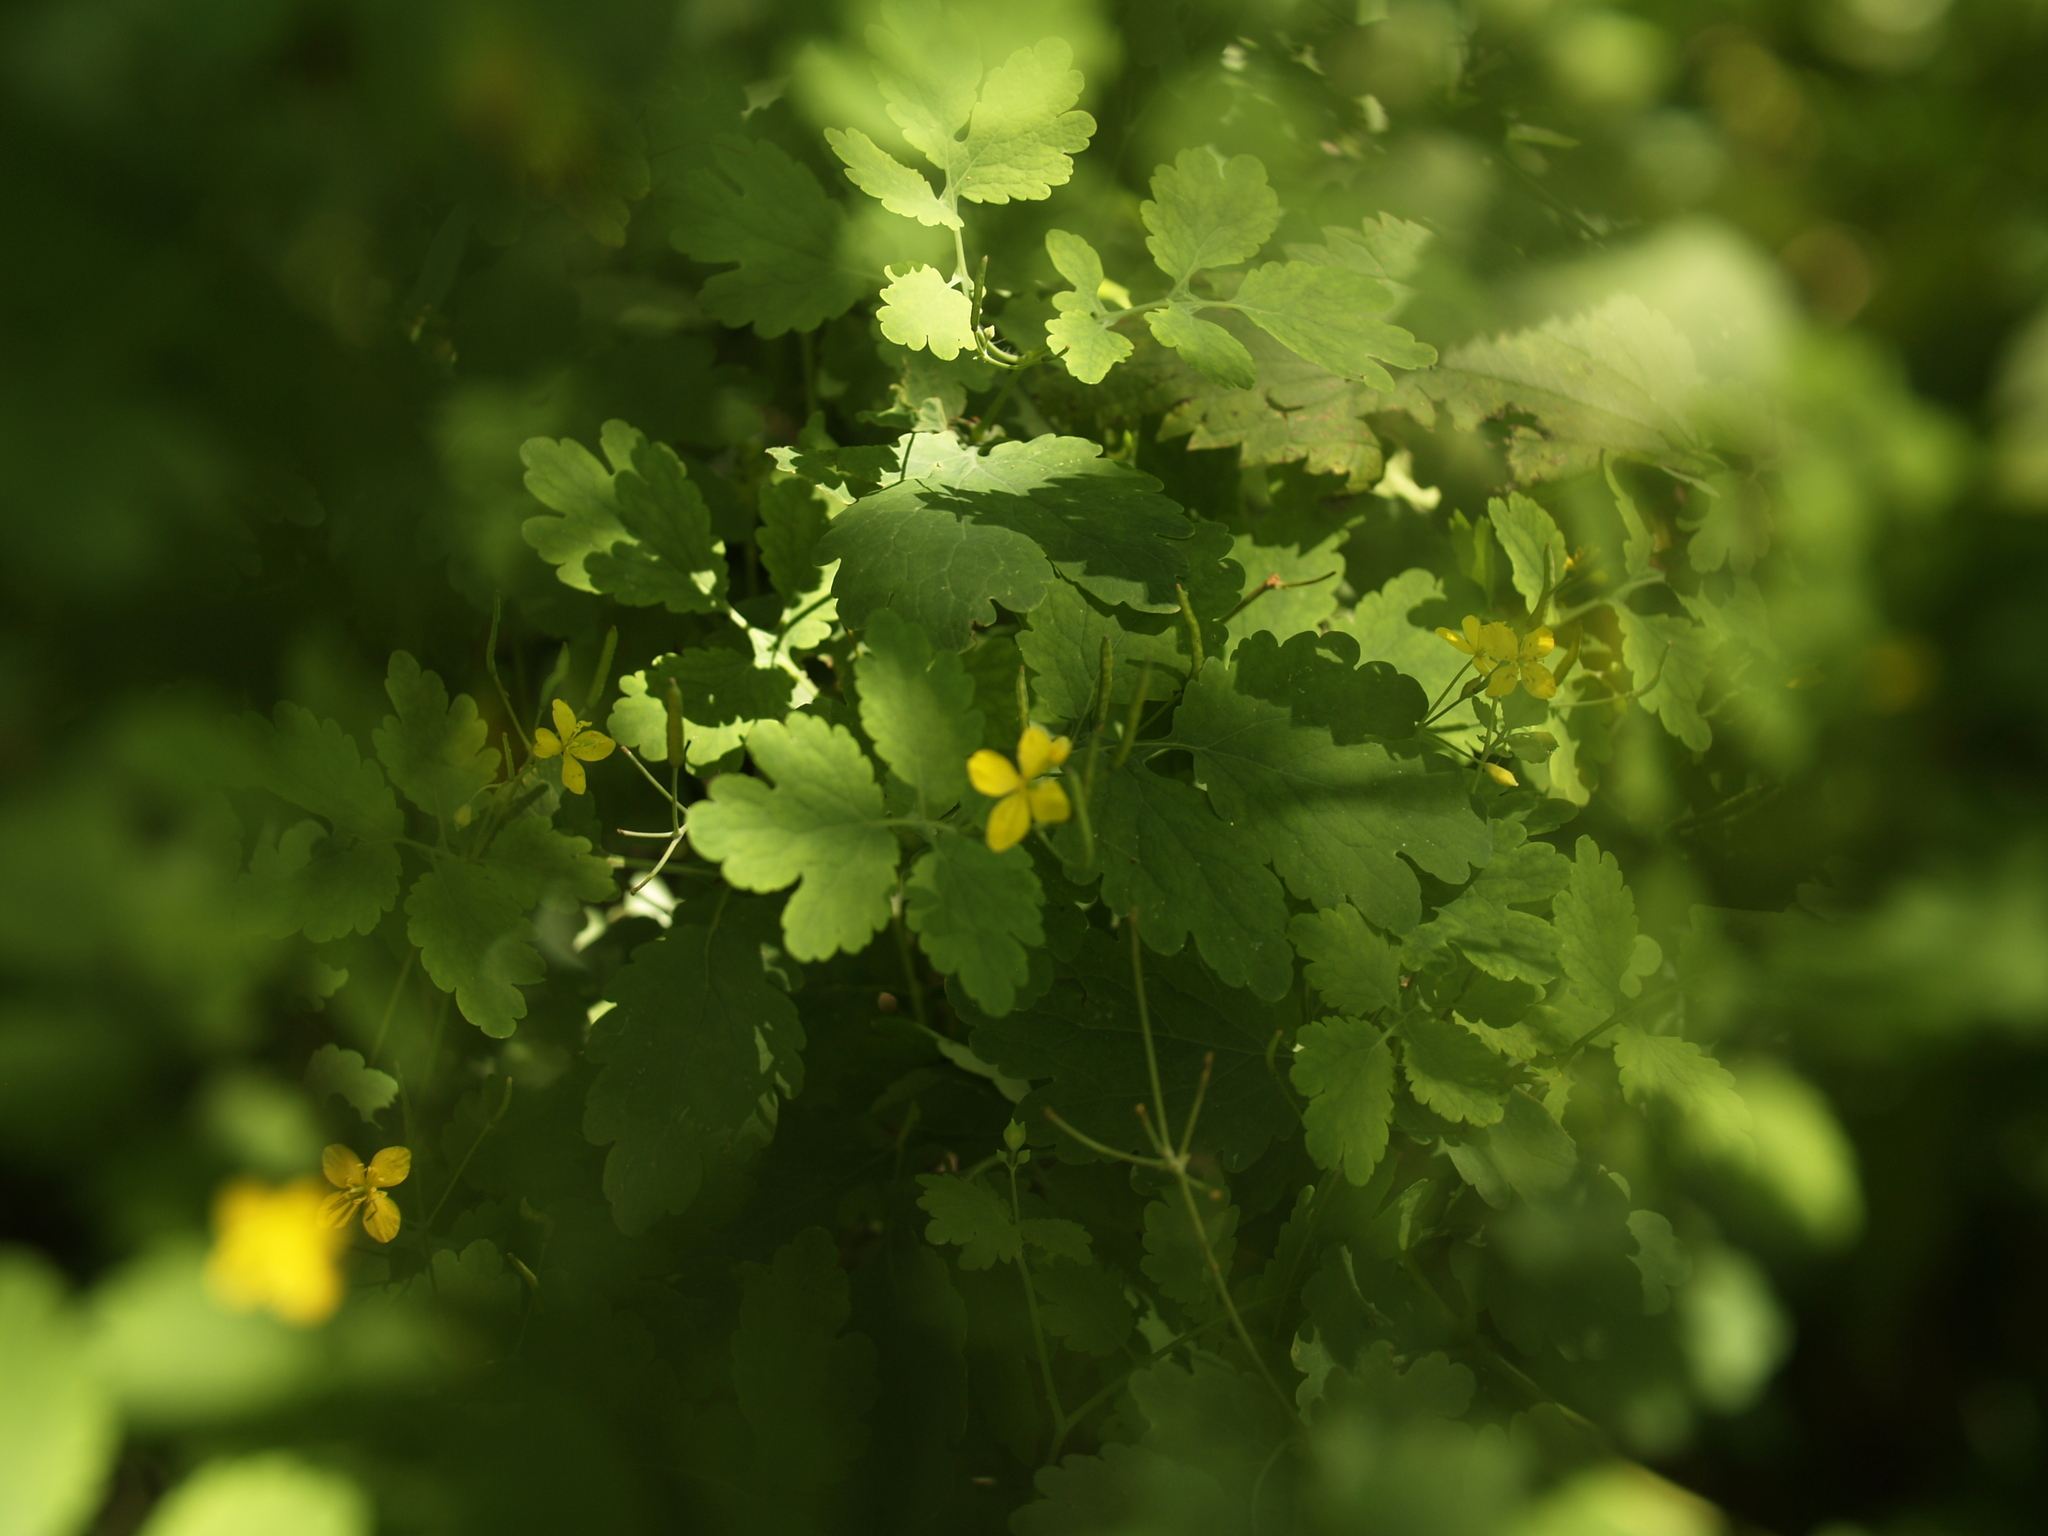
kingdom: Plantae
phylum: Tracheophyta
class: Magnoliopsida
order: Ranunculales
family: Papaveraceae
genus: Chelidonium
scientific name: Chelidonium majus
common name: Greater celandine
